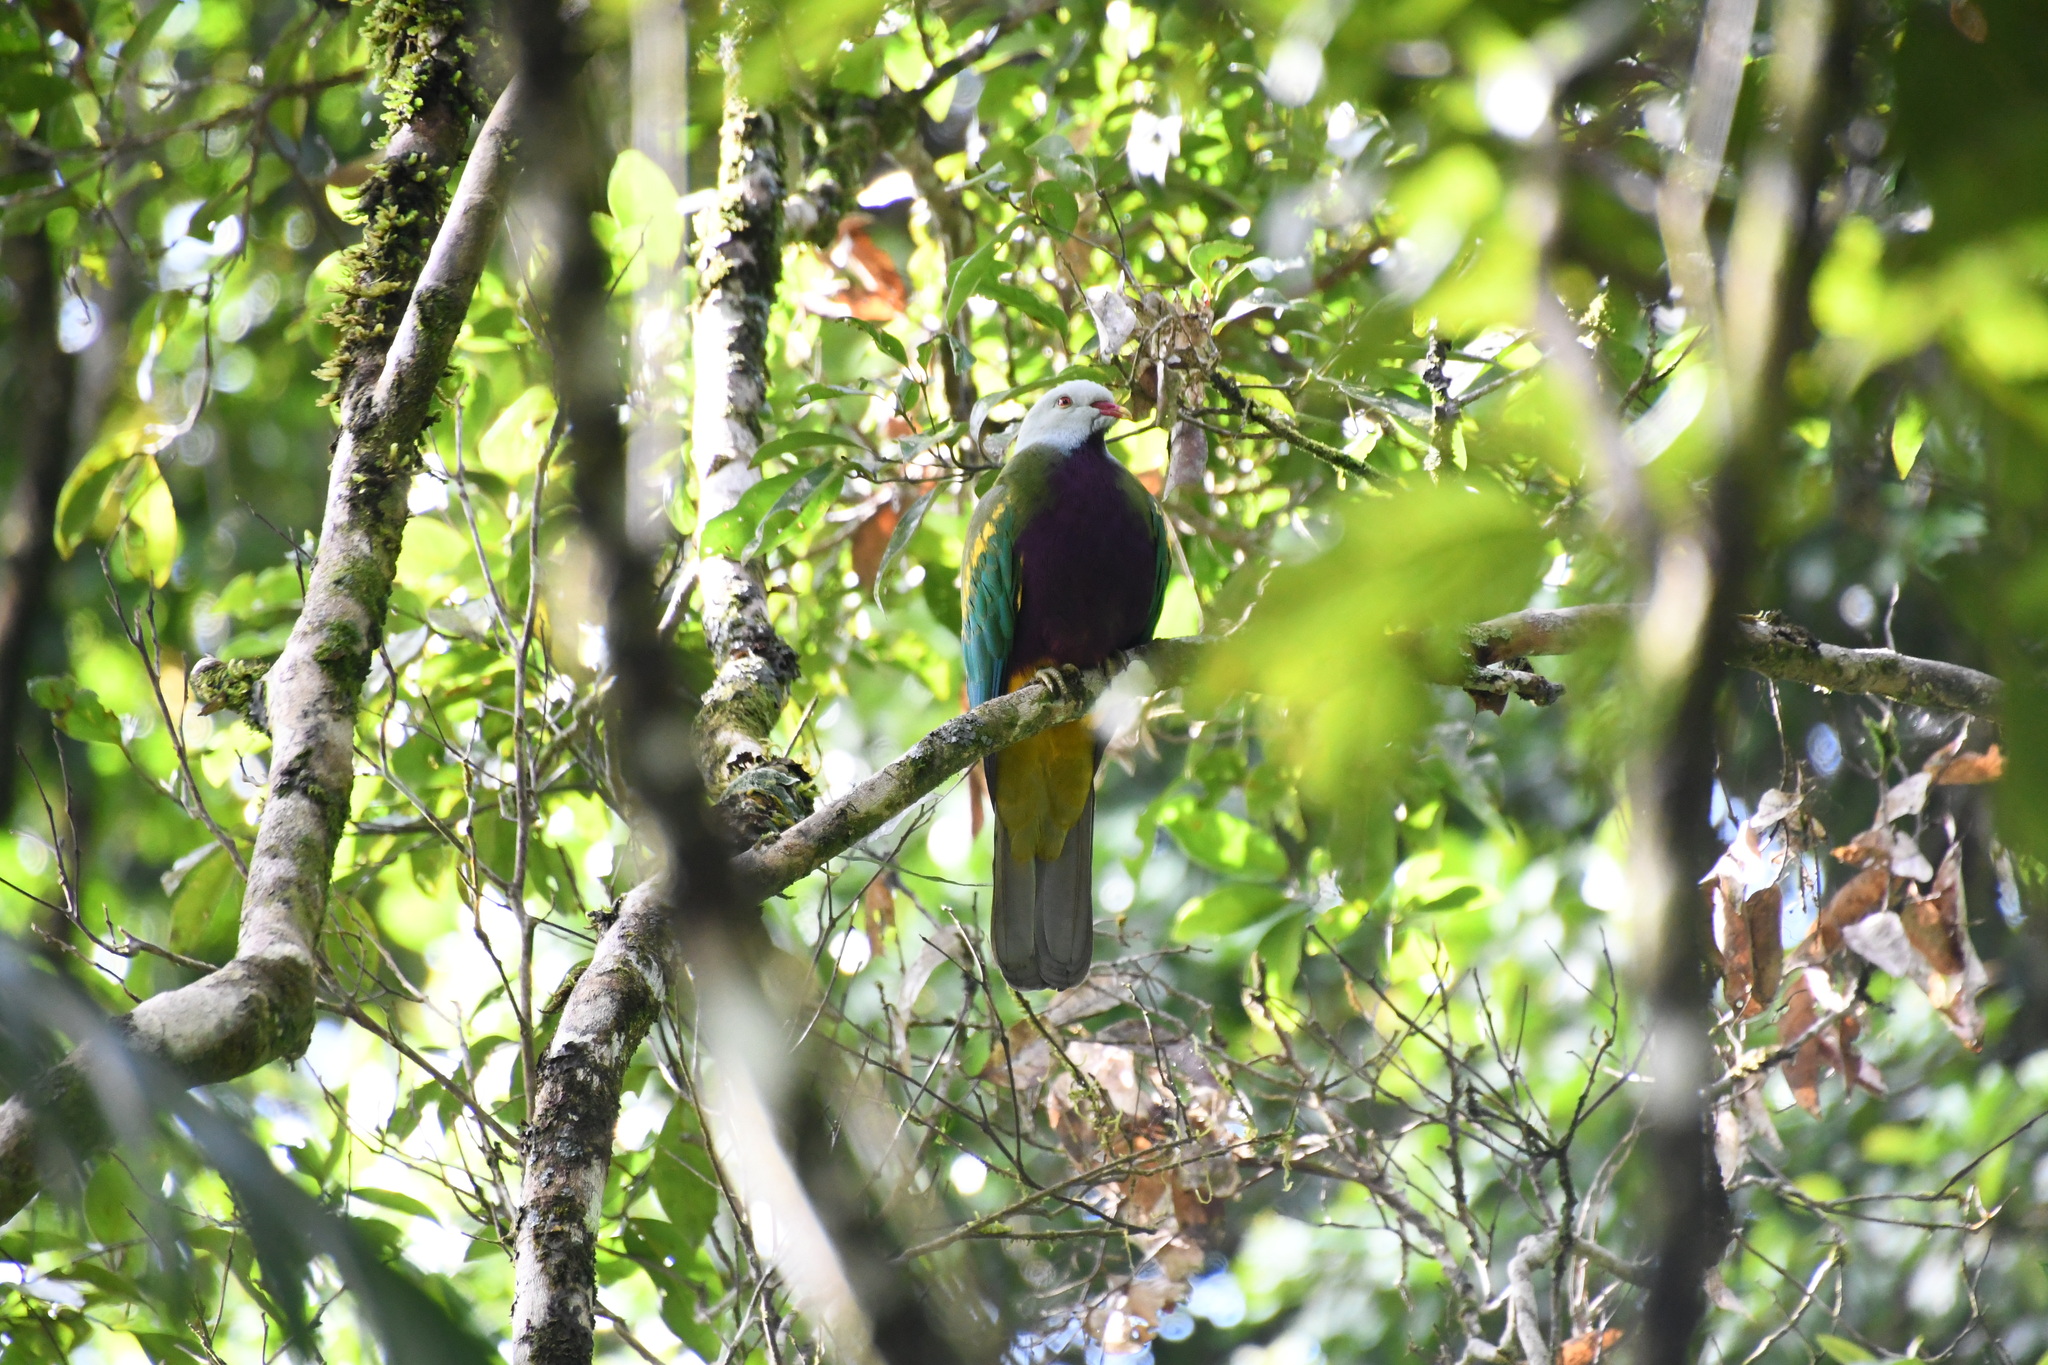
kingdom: Animalia
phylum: Chordata
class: Aves
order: Columbiformes
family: Columbidae
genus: Ptilinopus
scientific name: Ptilinopus magnificus
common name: Wompoo fruit dove
